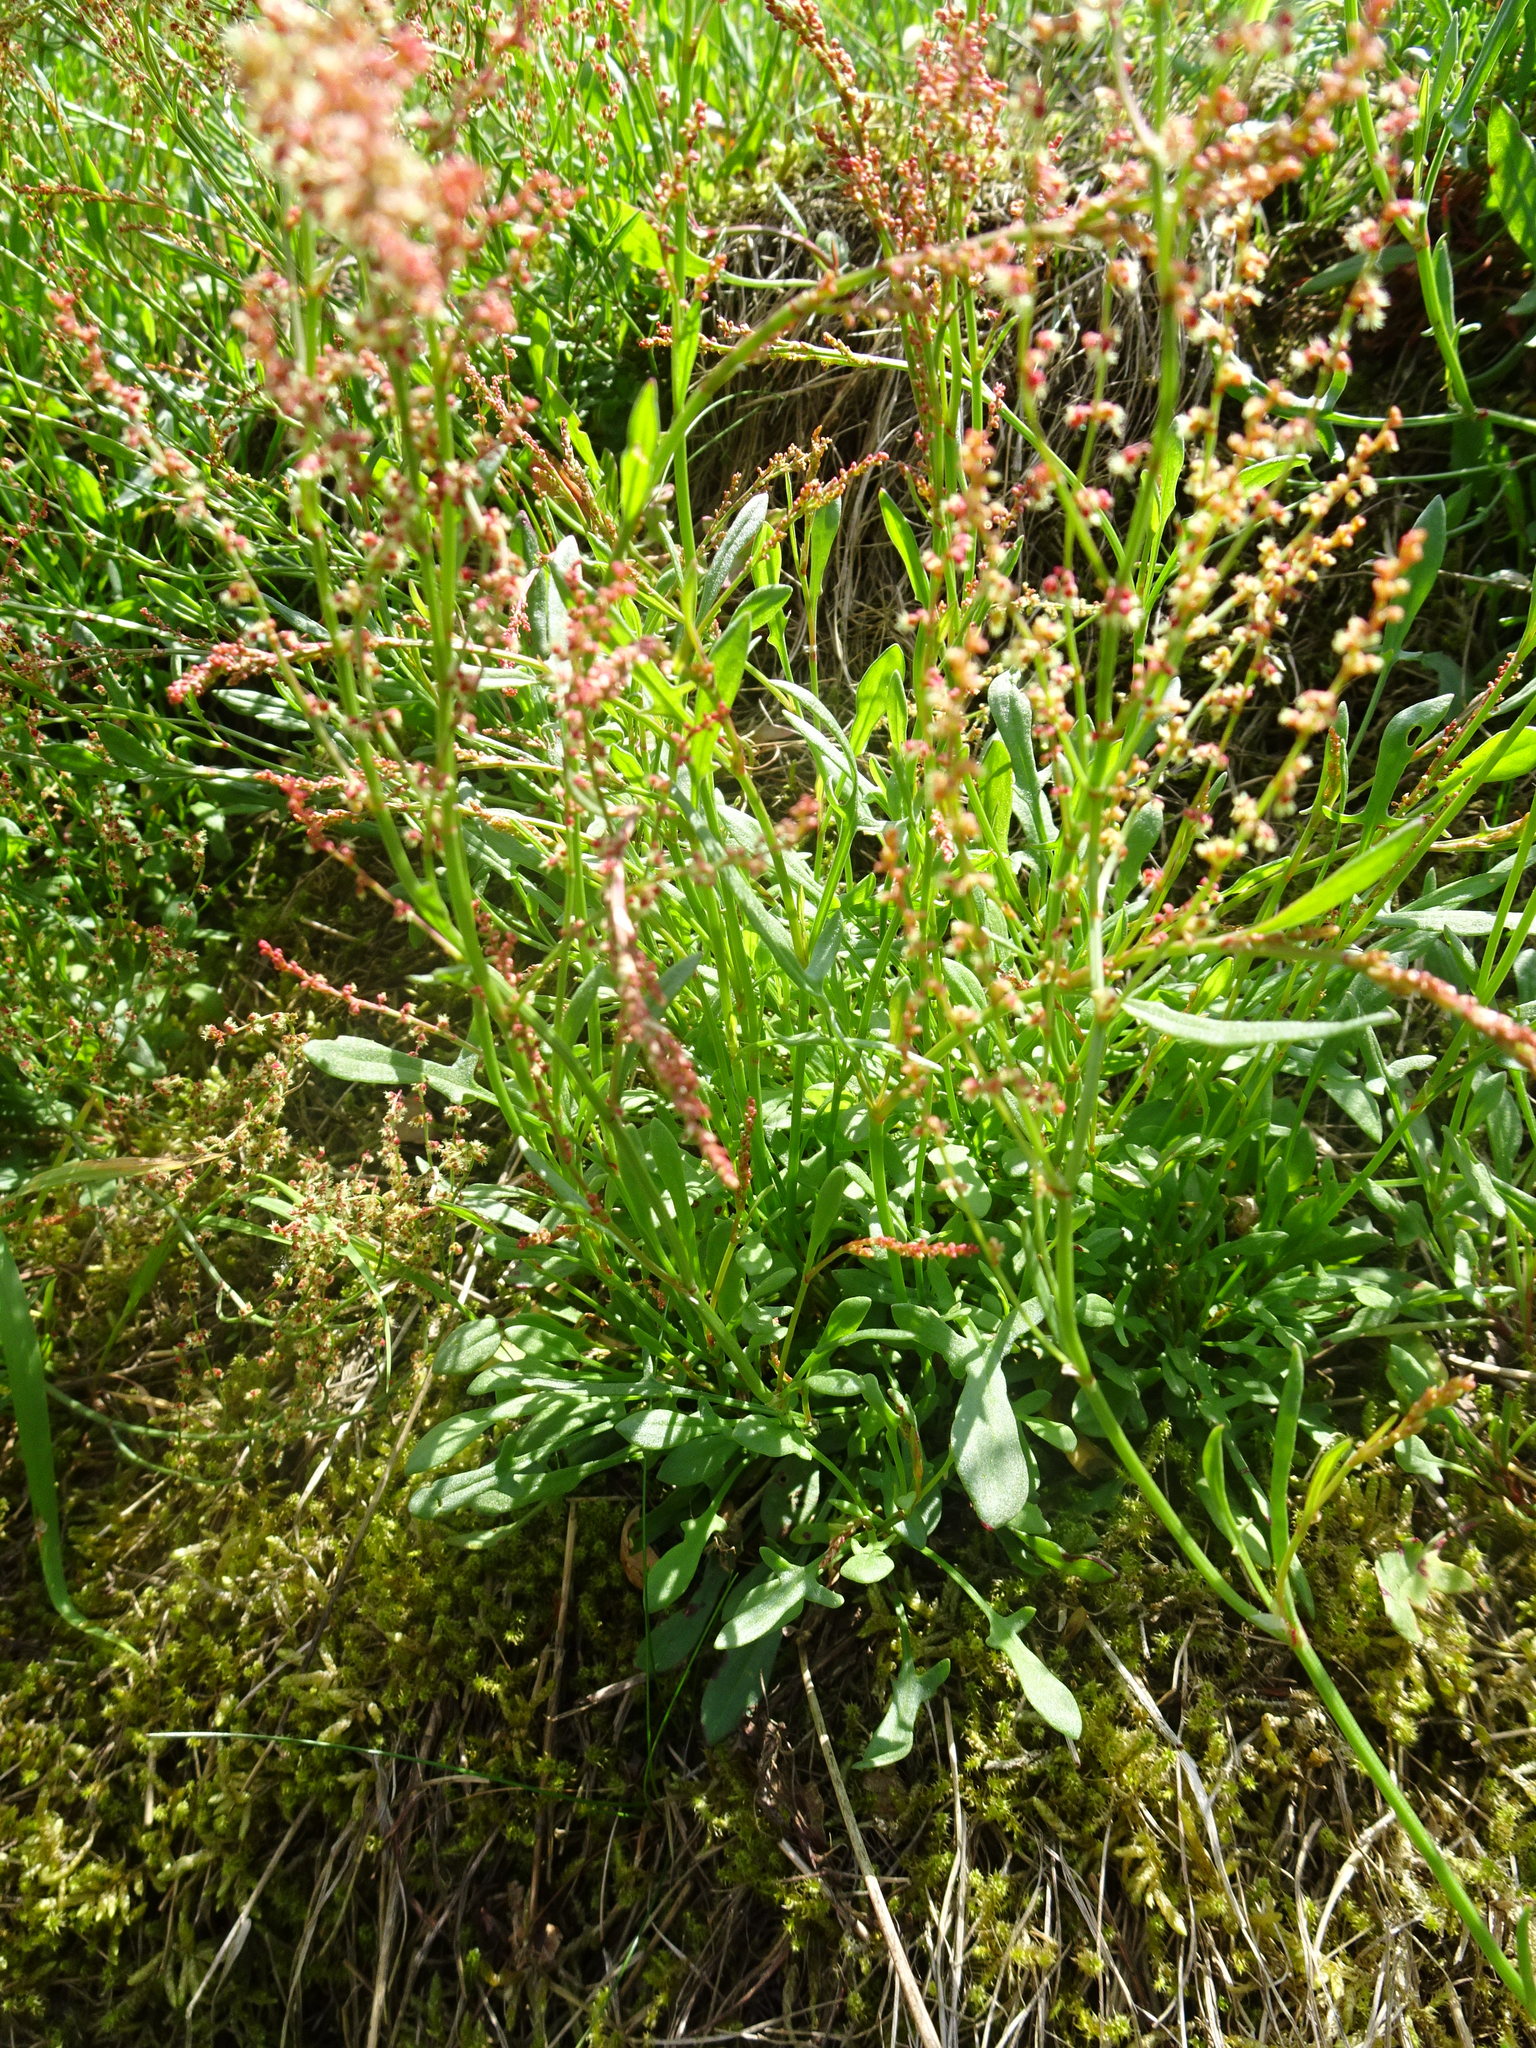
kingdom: Plantae
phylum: Tracheophyta
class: Magnoliopsida
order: Caryophyllales
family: Polygonaceae
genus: Rumex
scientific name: Rumex acetosella
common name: Common sheep sorrel
